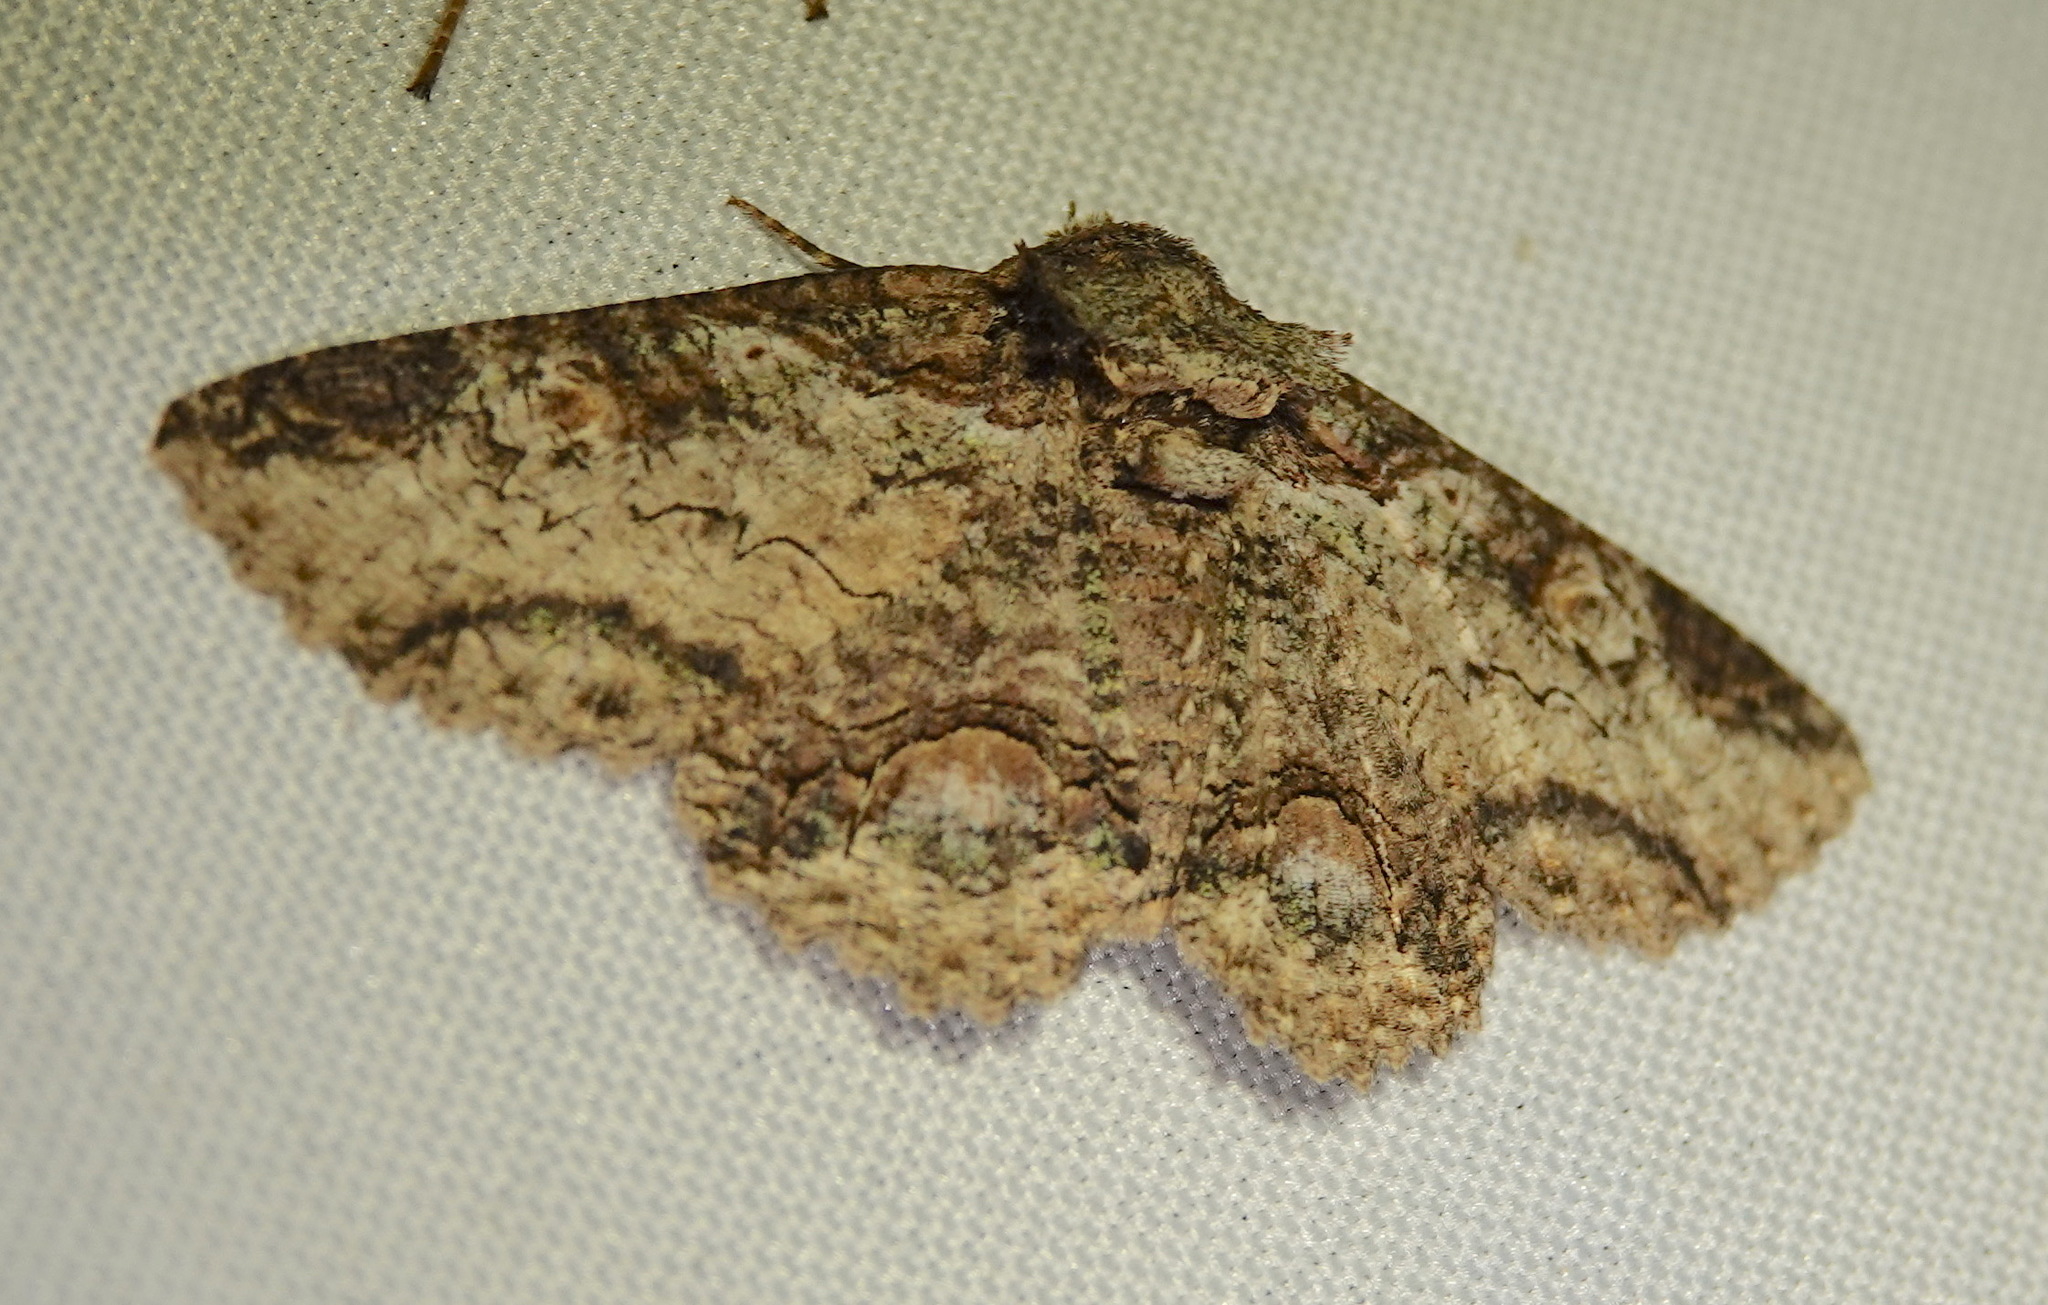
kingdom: Animalia
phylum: Arthropoda
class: Insecta
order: Lepidoptera
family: Erebidae
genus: Zale
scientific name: Zale exhausta
